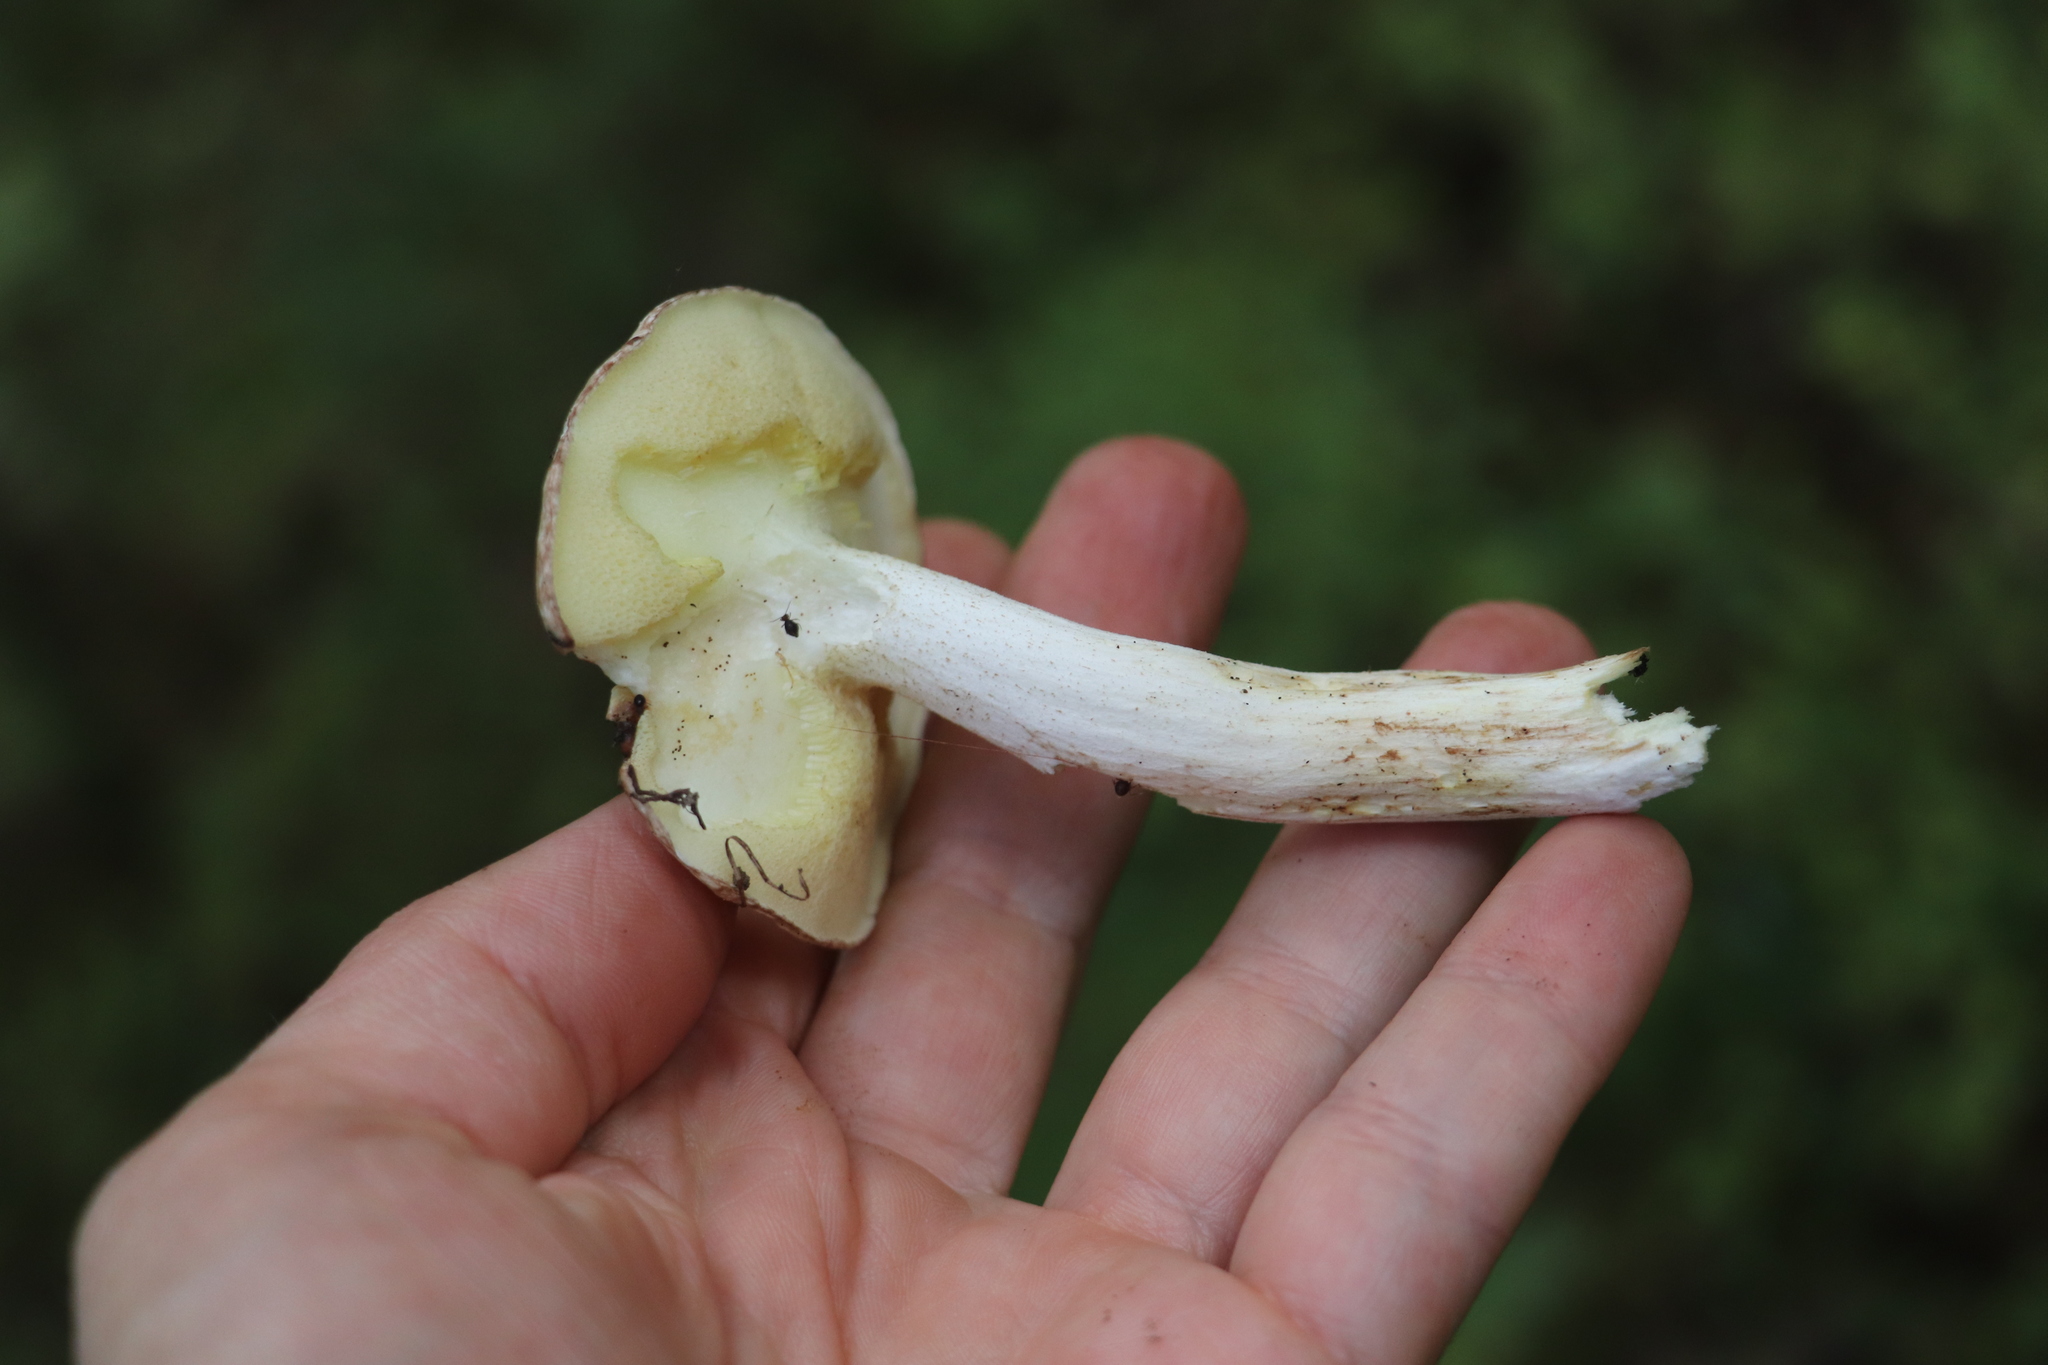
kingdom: Fungi
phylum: Basidiomycota
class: Agaricomycetes
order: Boletales
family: Suillaceae
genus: Suillus
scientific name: Suillus placidus
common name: Slippery white bolete
